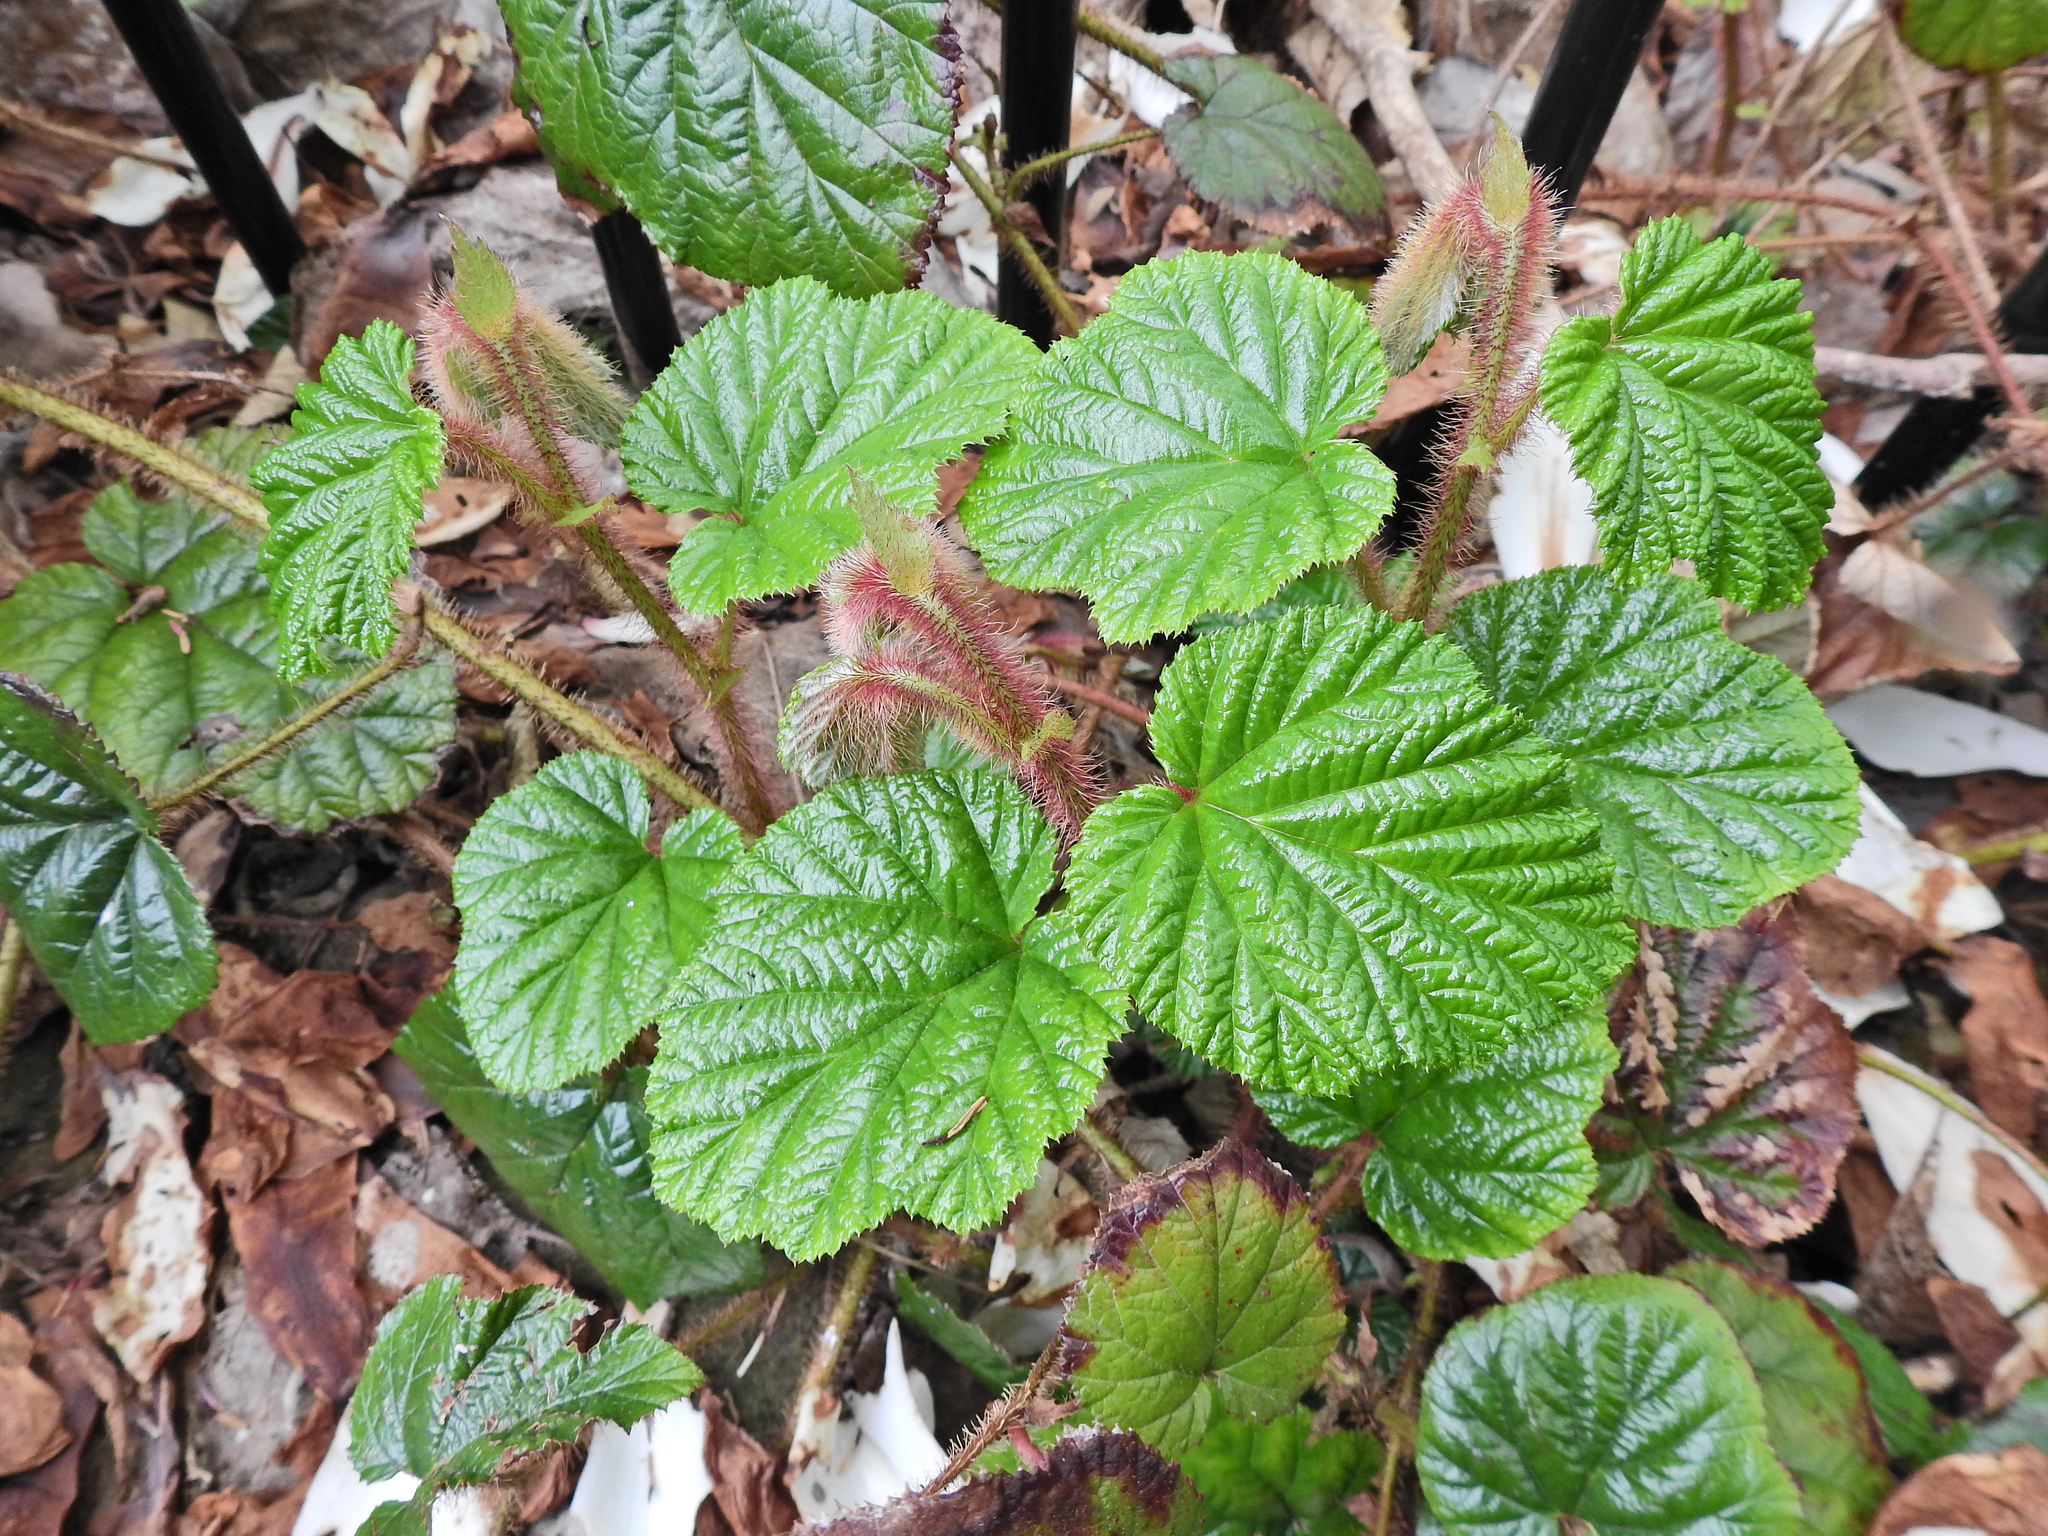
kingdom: Plantae
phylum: Tracheophyta
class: Magnoliopsida
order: Rosales
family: Rosaceae
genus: Rubus
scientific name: Rubus tricolor
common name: Chinese bramble
